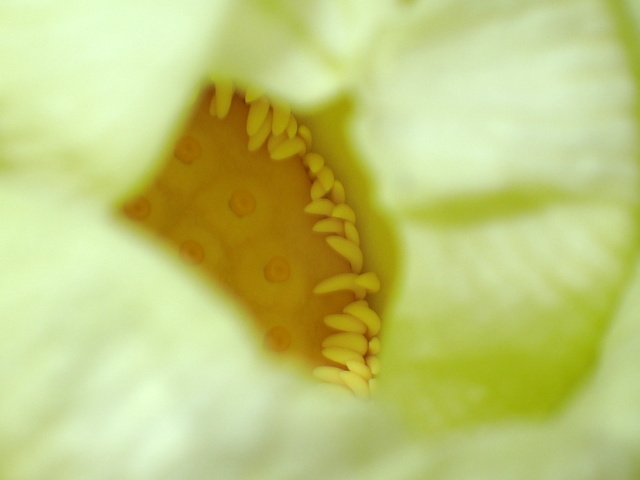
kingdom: Plantae
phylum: Tracheophyta
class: Magnoliopsida
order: Proteales
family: Nelumbonaceae
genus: Nelumbo
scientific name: Nelumbo lutea
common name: American lotus
